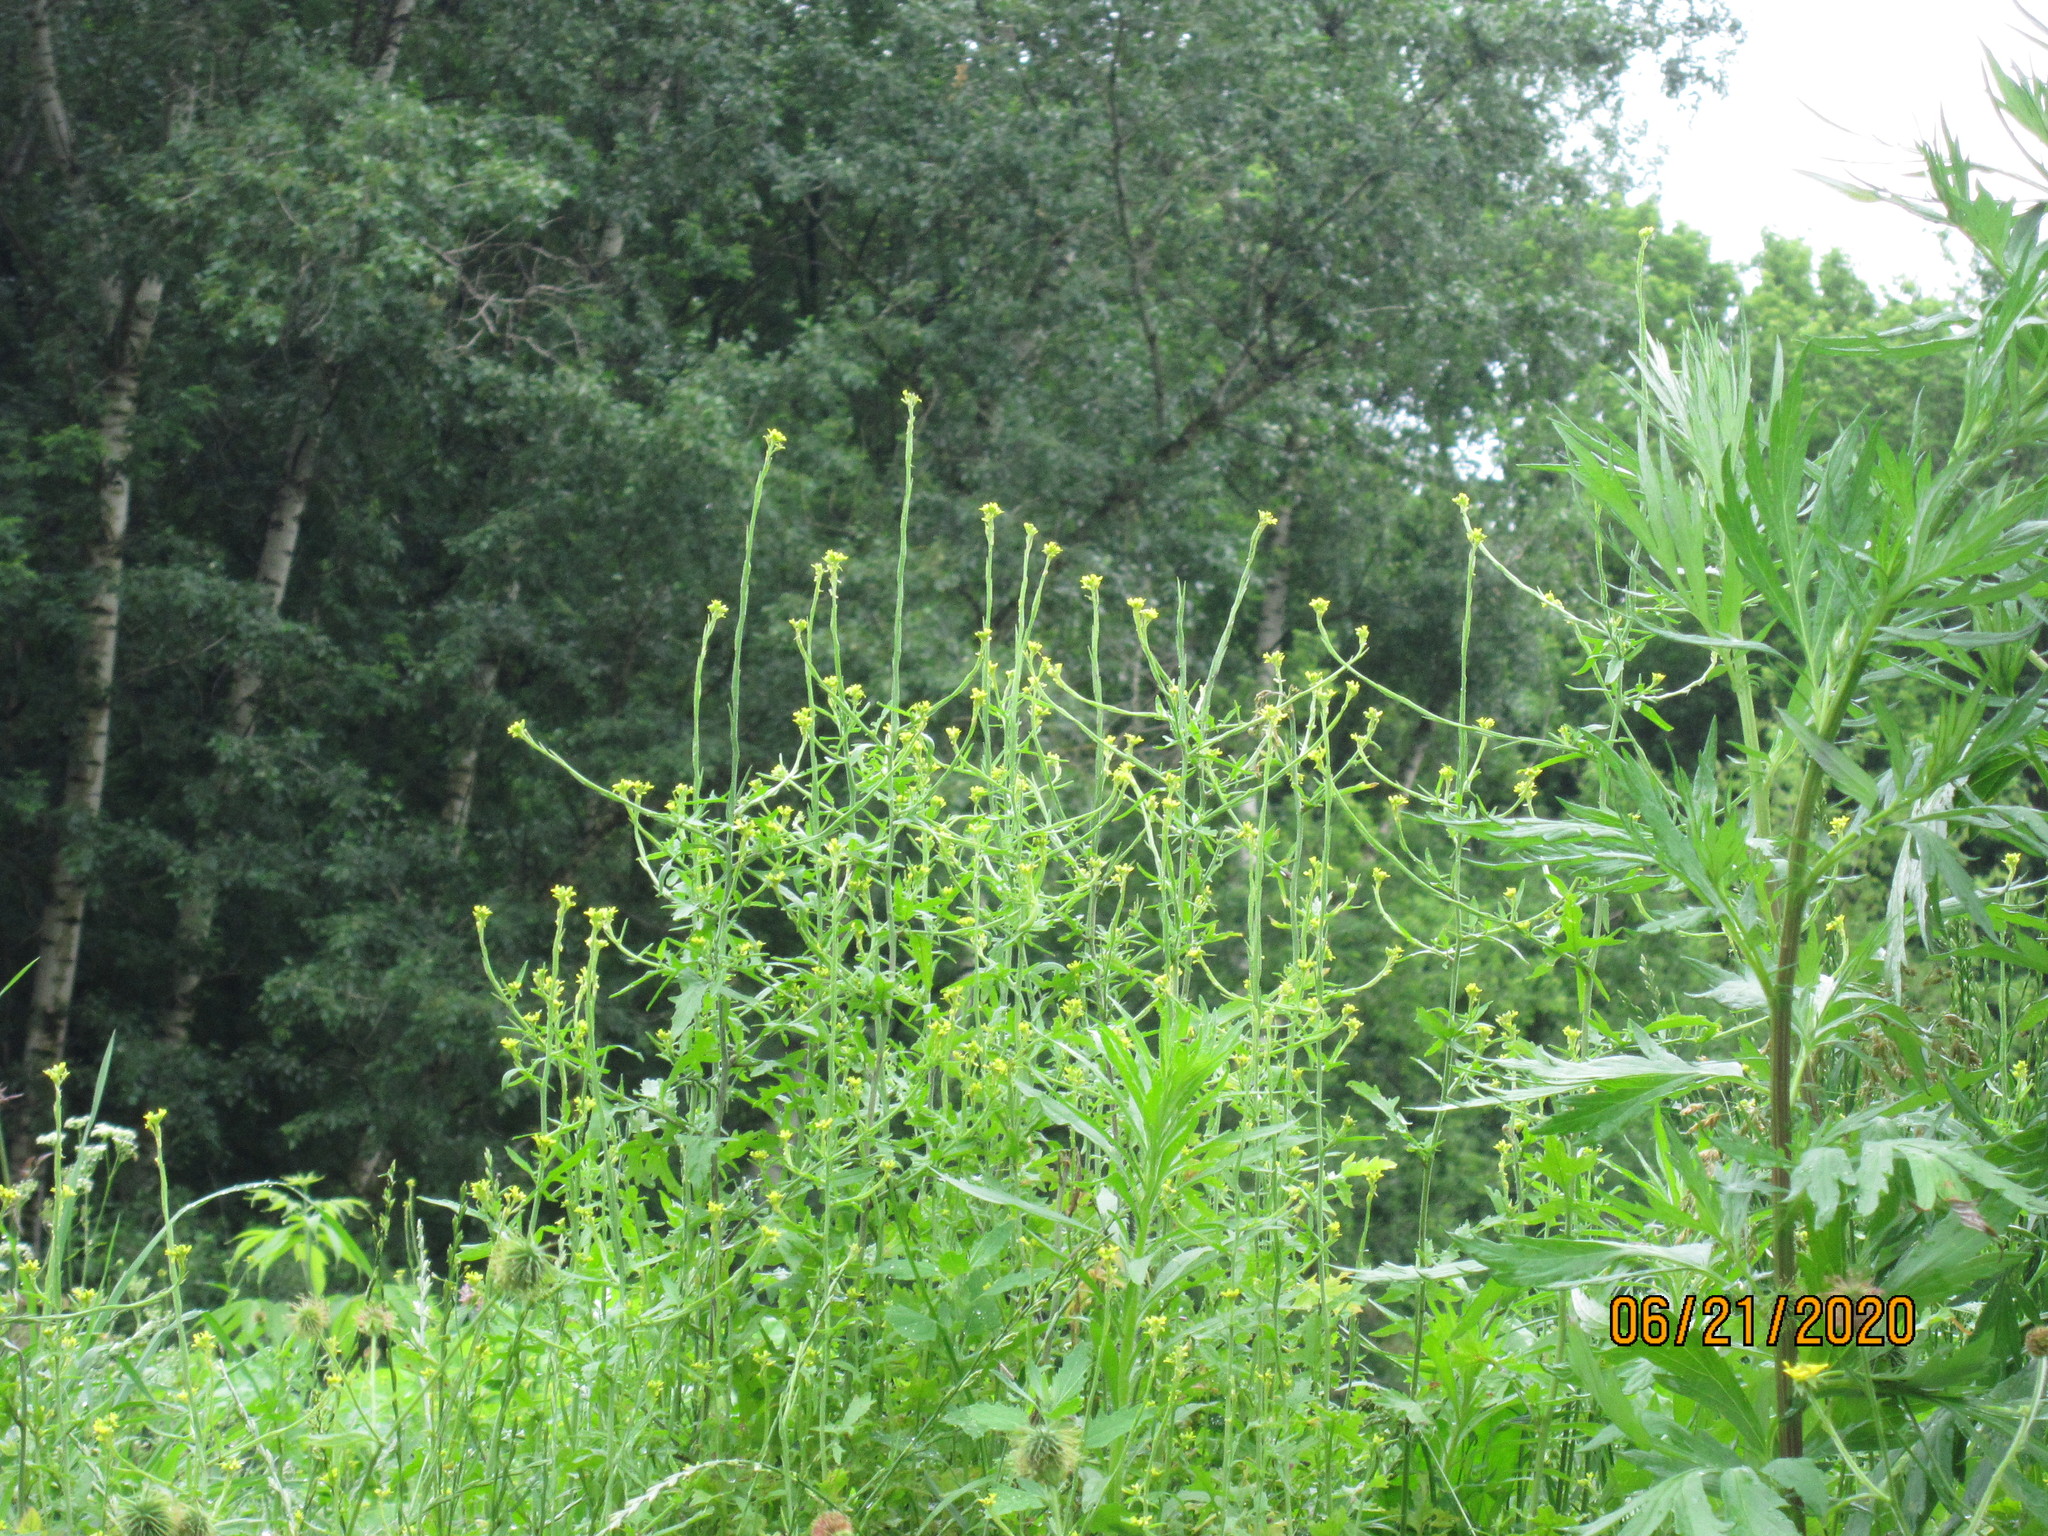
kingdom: Plantae
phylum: Tracheophyta
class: Magnoliopsida
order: Brassicales
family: Brassicaceae
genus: Sisymbrium
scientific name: Sisymbrium officinale
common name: Hedge mustard
